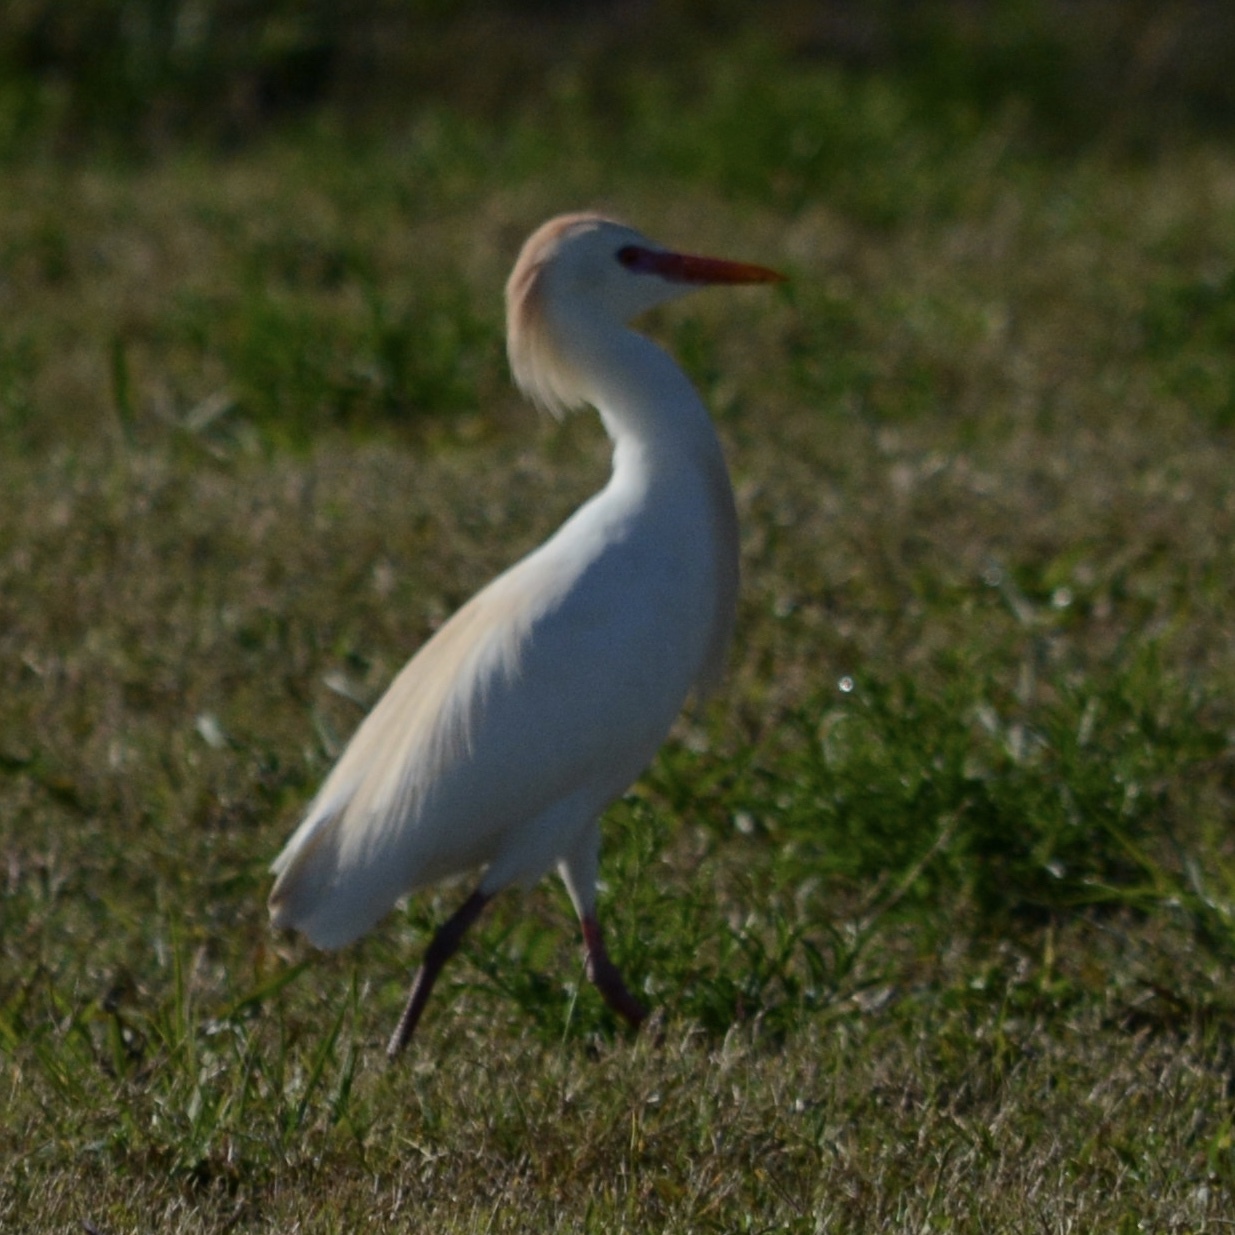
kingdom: Animalia
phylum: Chordata
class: Aves
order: Pelecaniformes
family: Ardeidae
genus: Bubulcus
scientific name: Bubulcus ibis
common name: Cattle egret
